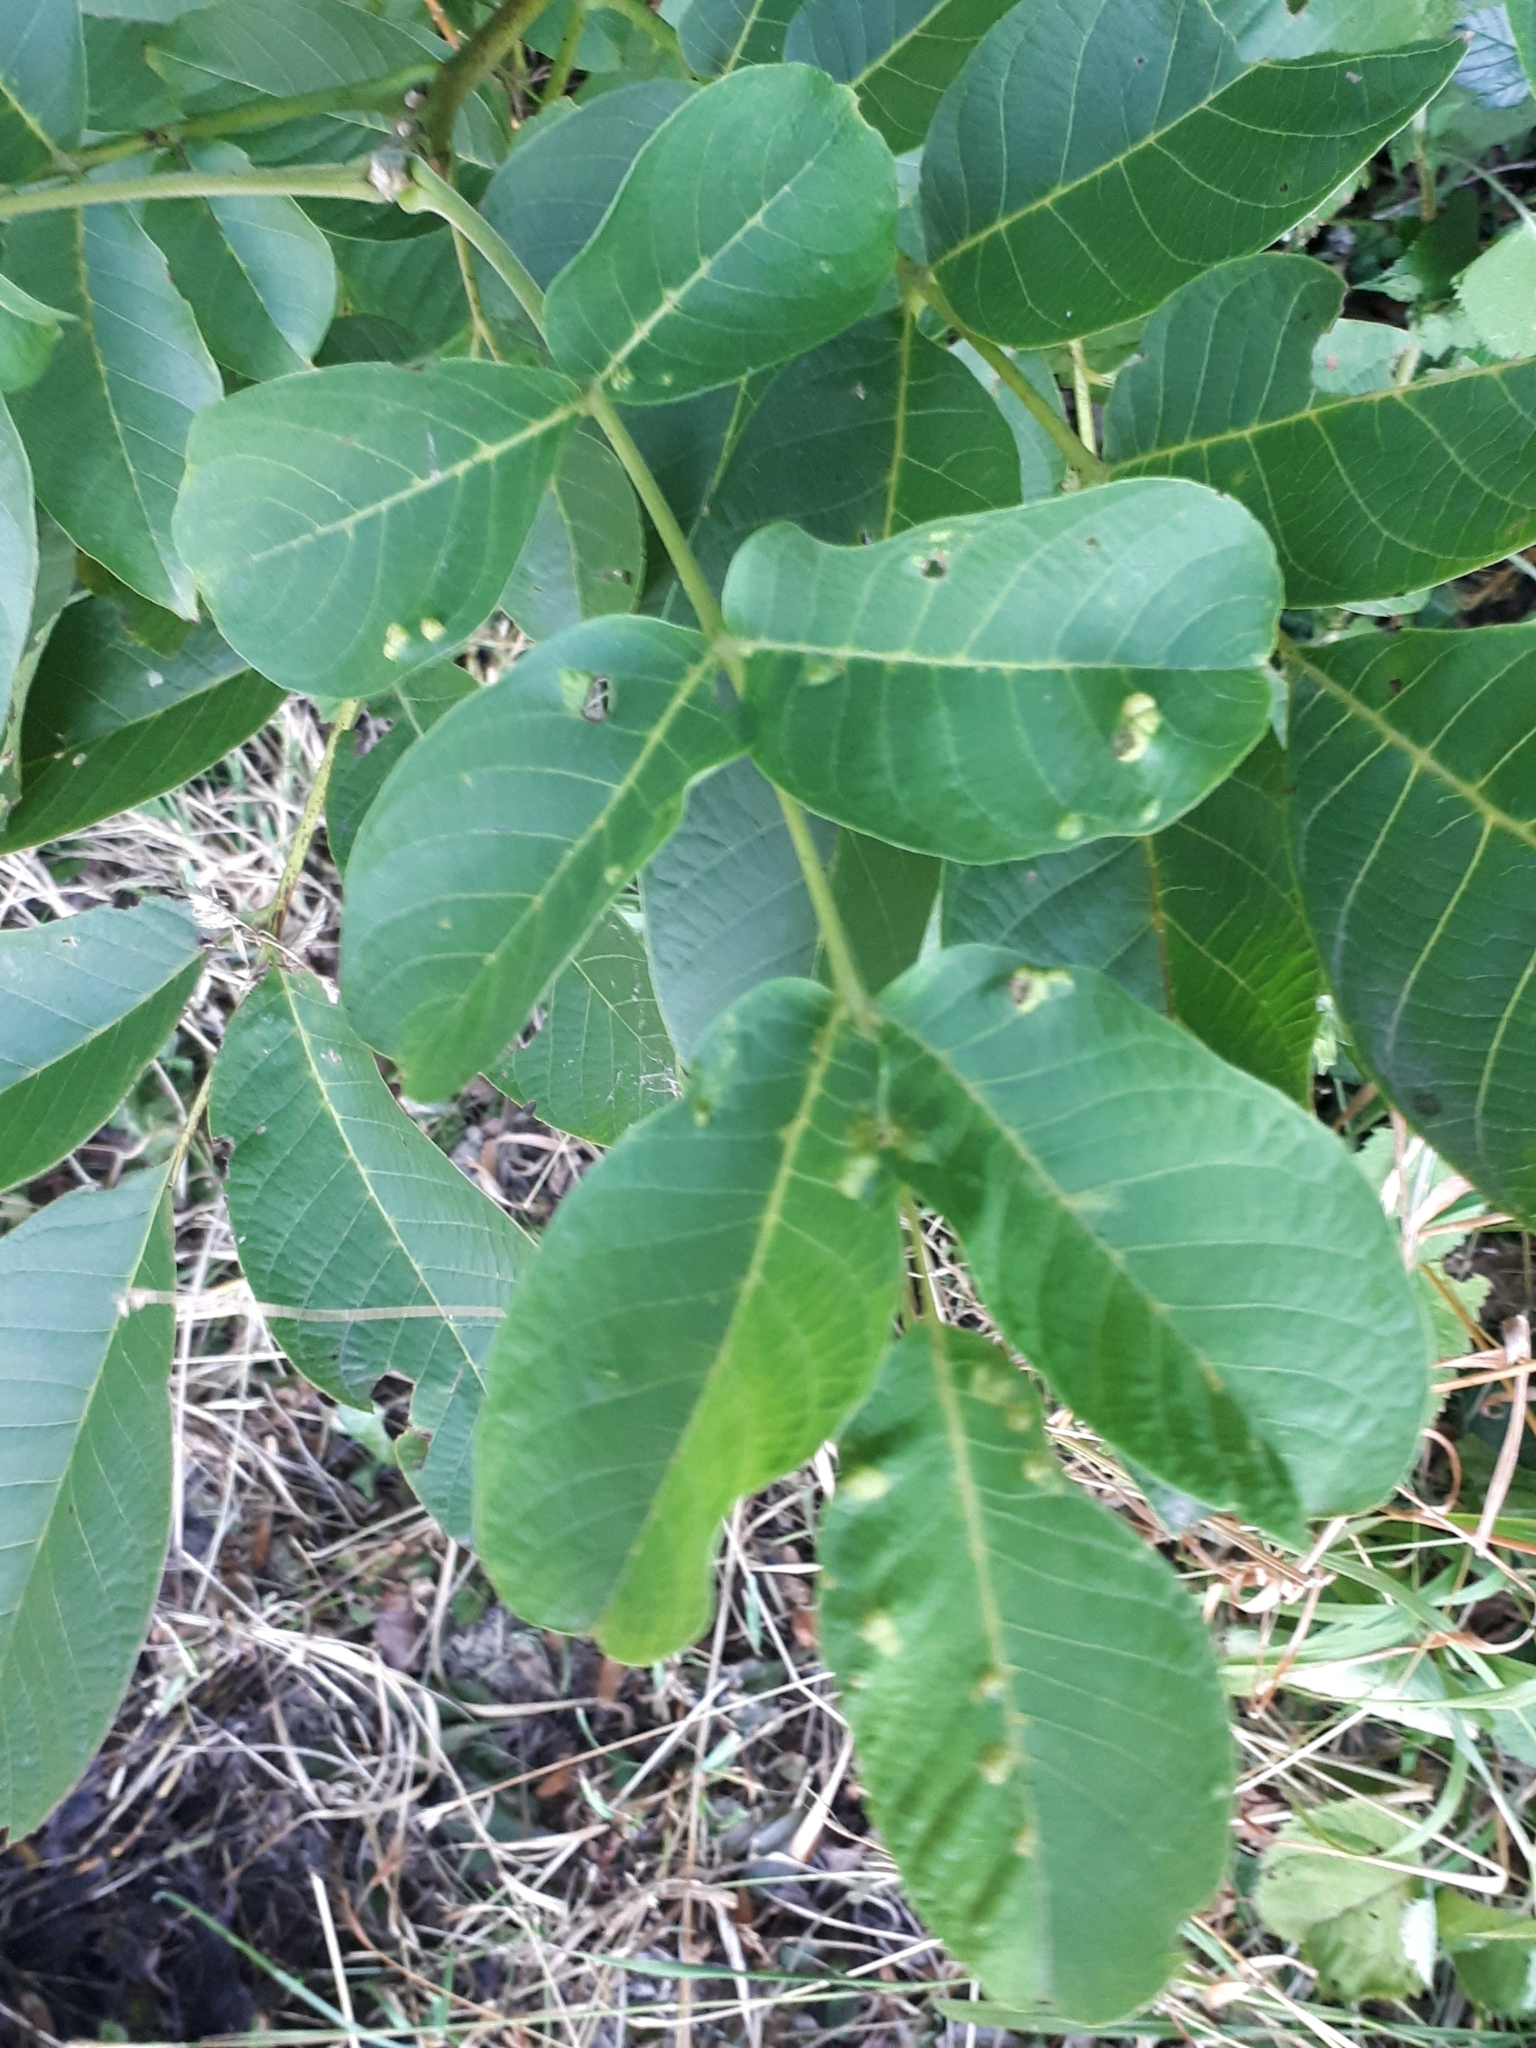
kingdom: Animalia
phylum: Arthropoda
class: Arachnida
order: Trombidiformes
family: Eriophyidae
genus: Aceria
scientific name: Aceria erinea
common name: Persian walnut erineum mite
